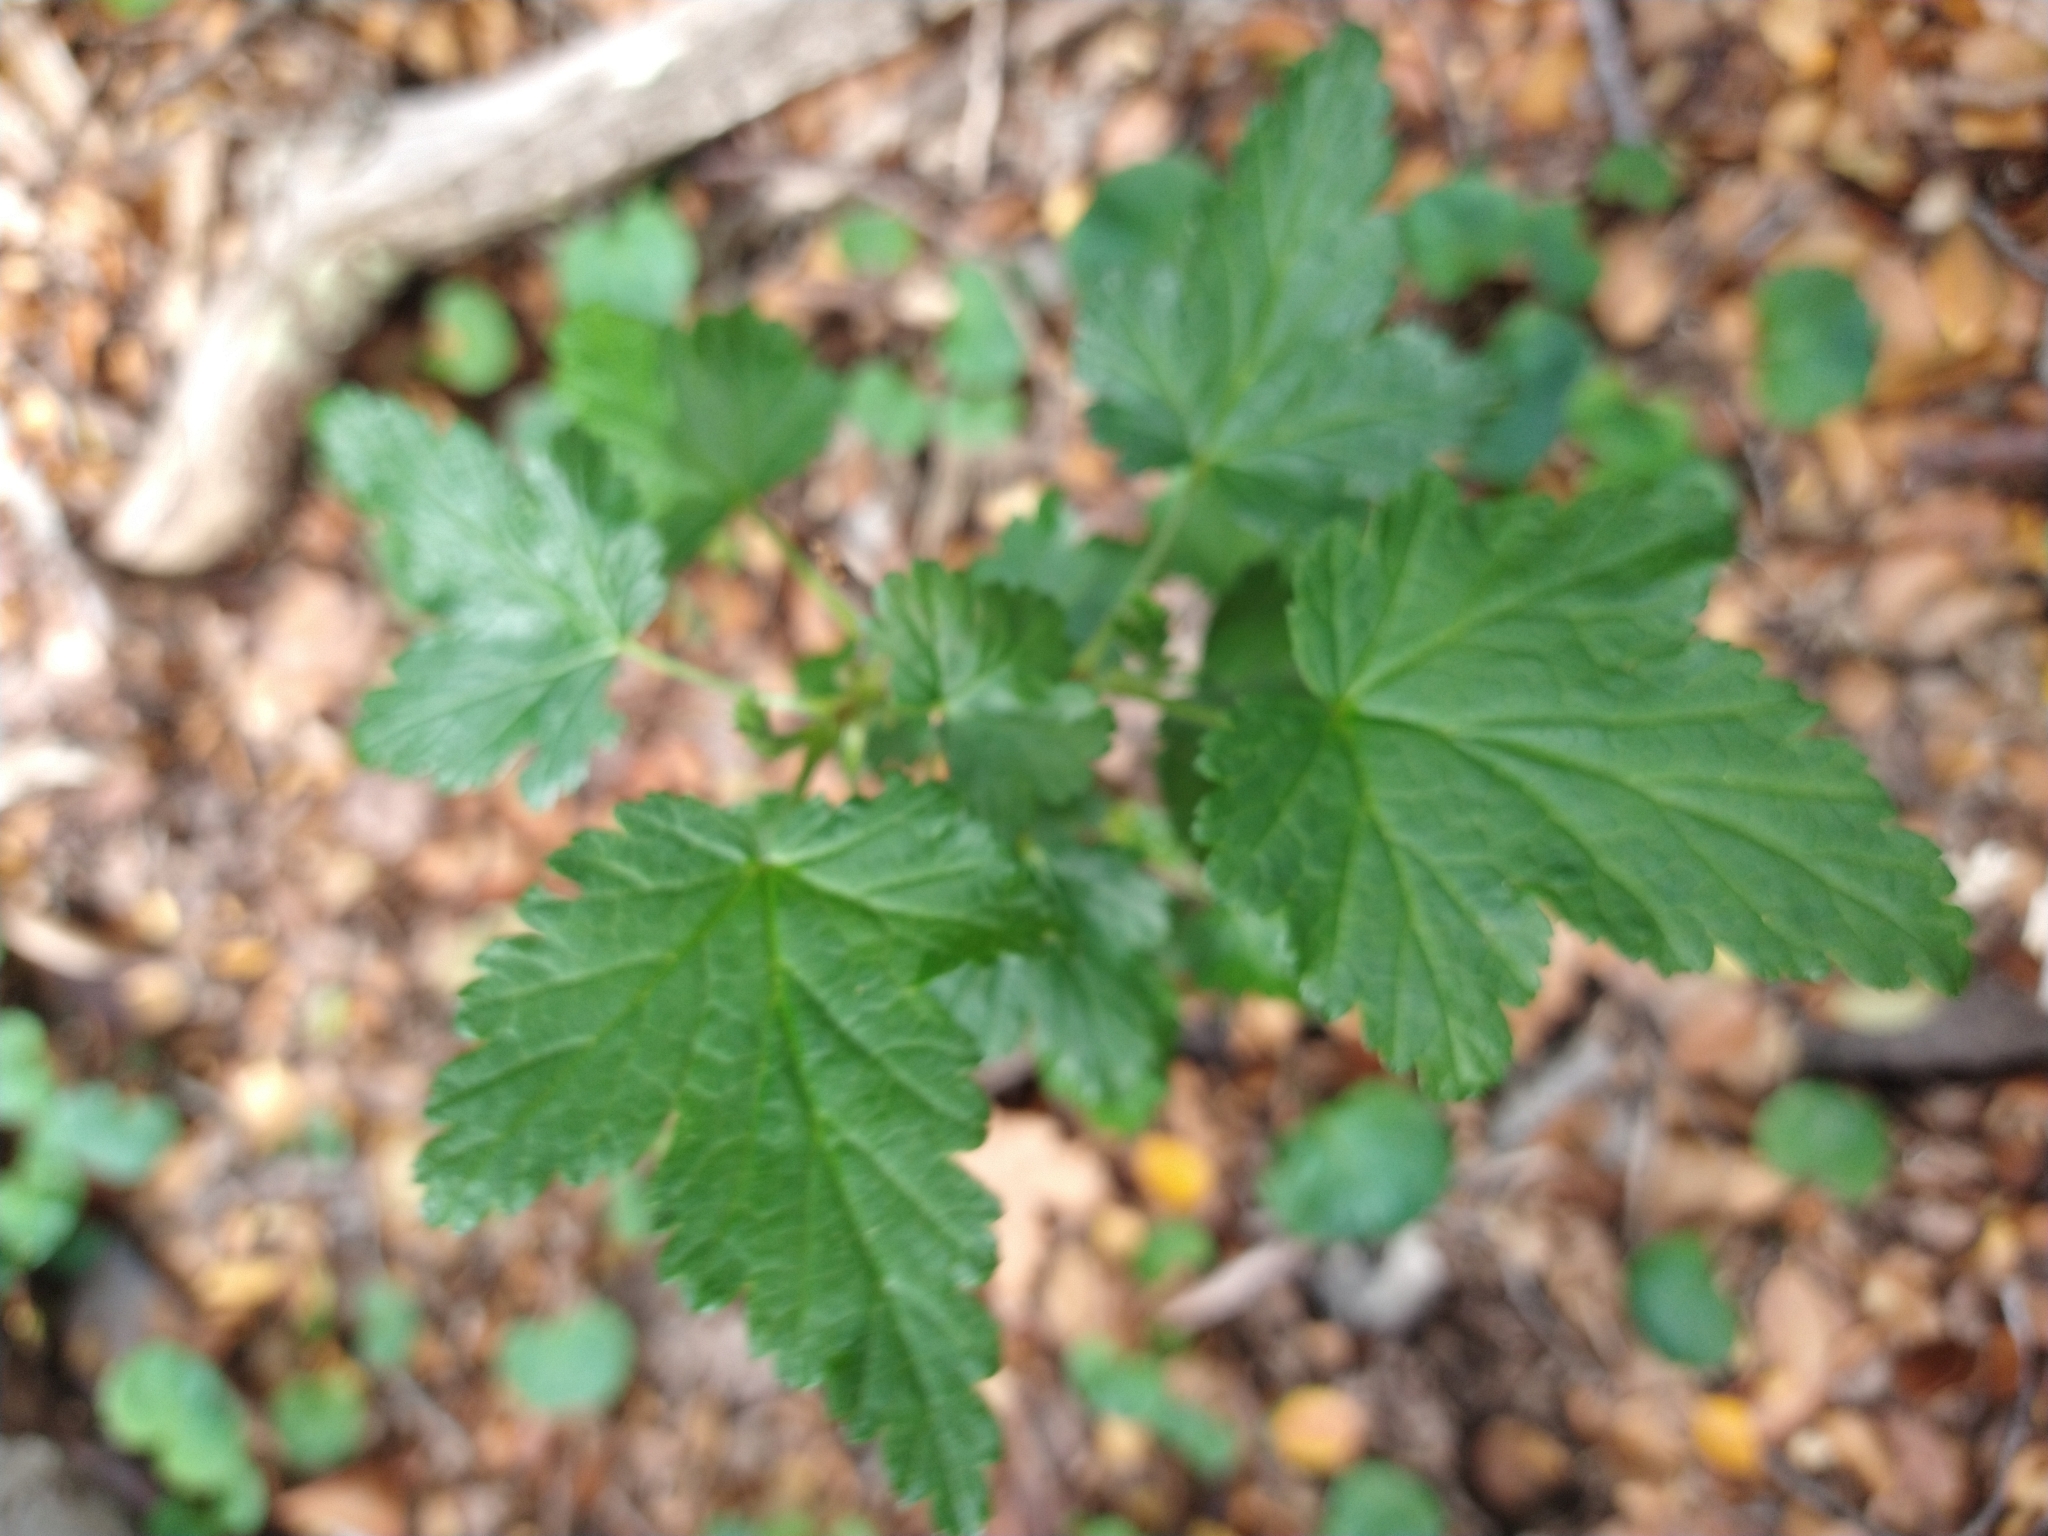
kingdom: Plantae
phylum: Tracheophyta
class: Magnoliopsida
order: Saxifragales
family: Grossulariaceae
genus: Ribes
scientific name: Ribes magellanicum
